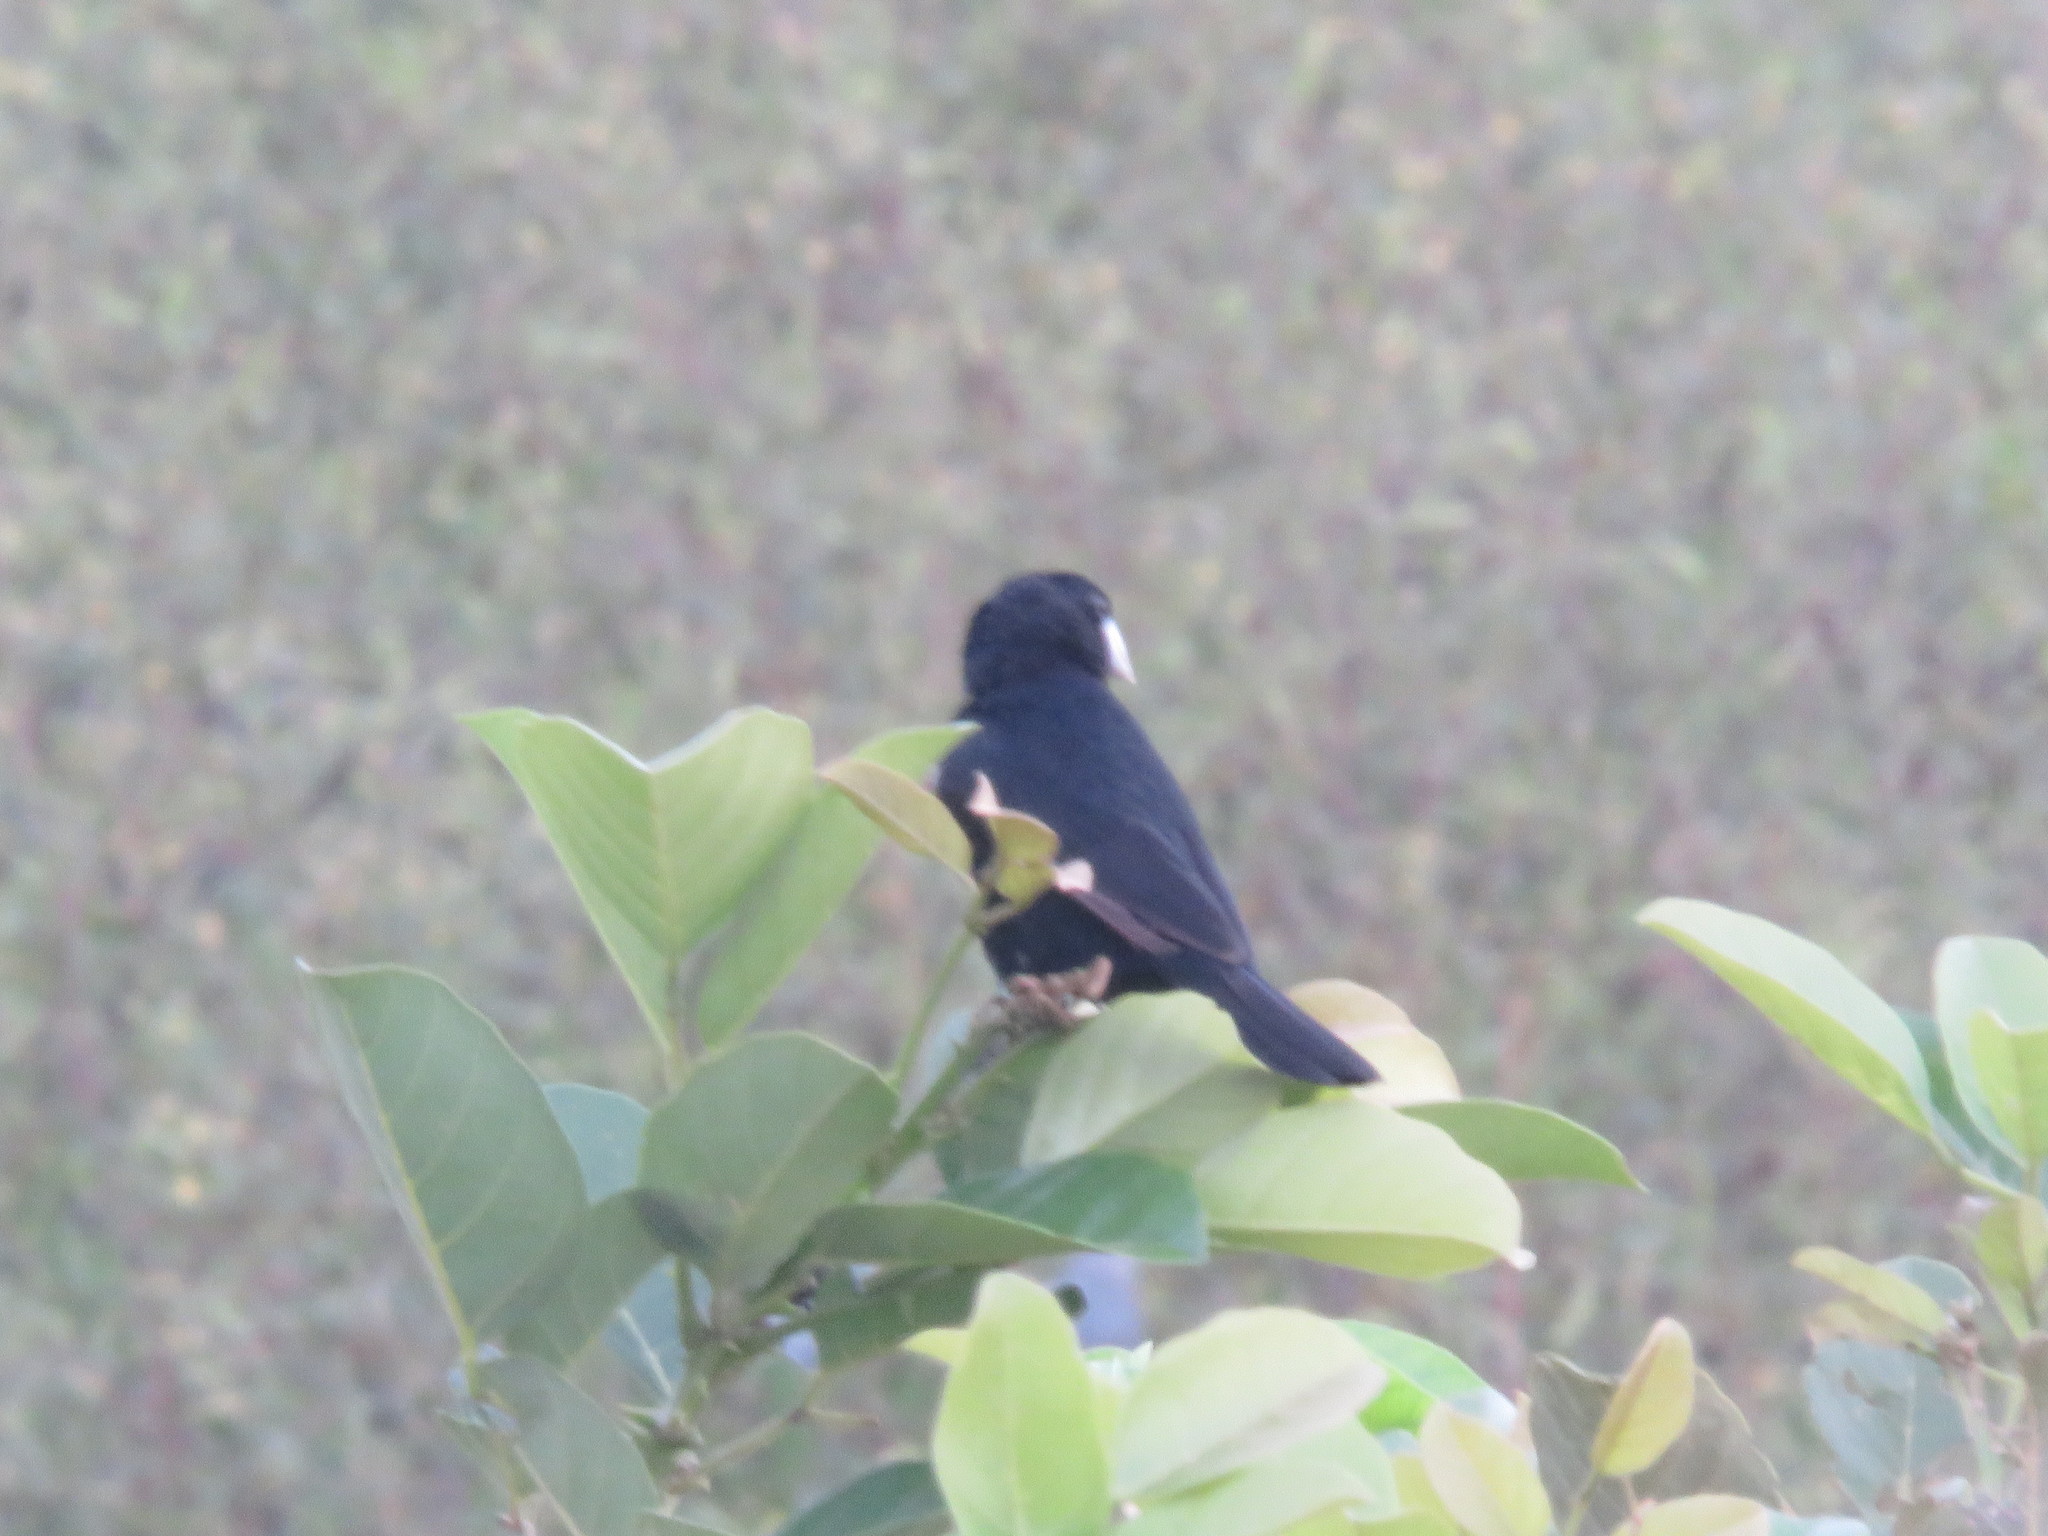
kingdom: Animalia
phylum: Chordata
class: Aves
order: Passeriformes
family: Thraupidae
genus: Sporophila
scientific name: Sporophila maximiliani
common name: Great-billed seed-finch
